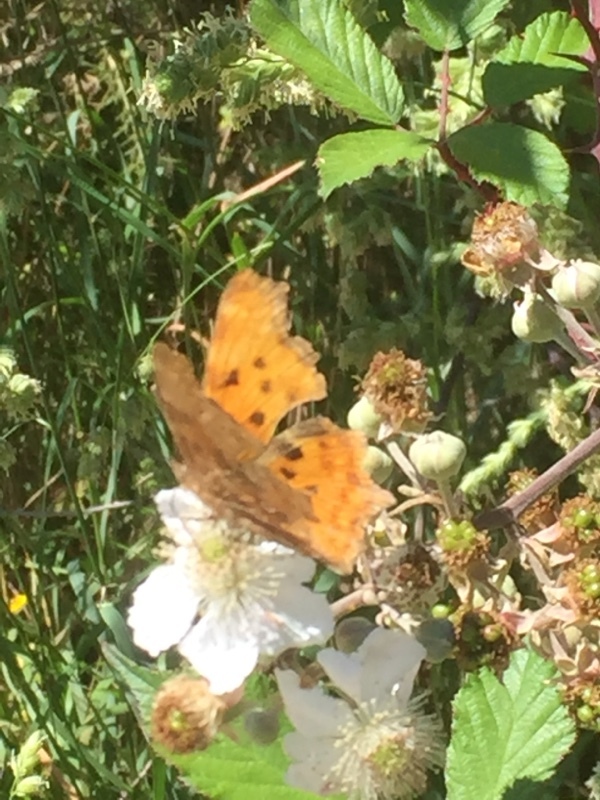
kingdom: Animalia
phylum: Arthropoda
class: Insecta
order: Lepidoptera
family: Nymphalidae
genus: Polygonia
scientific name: Polygonia c-album
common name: Comma
